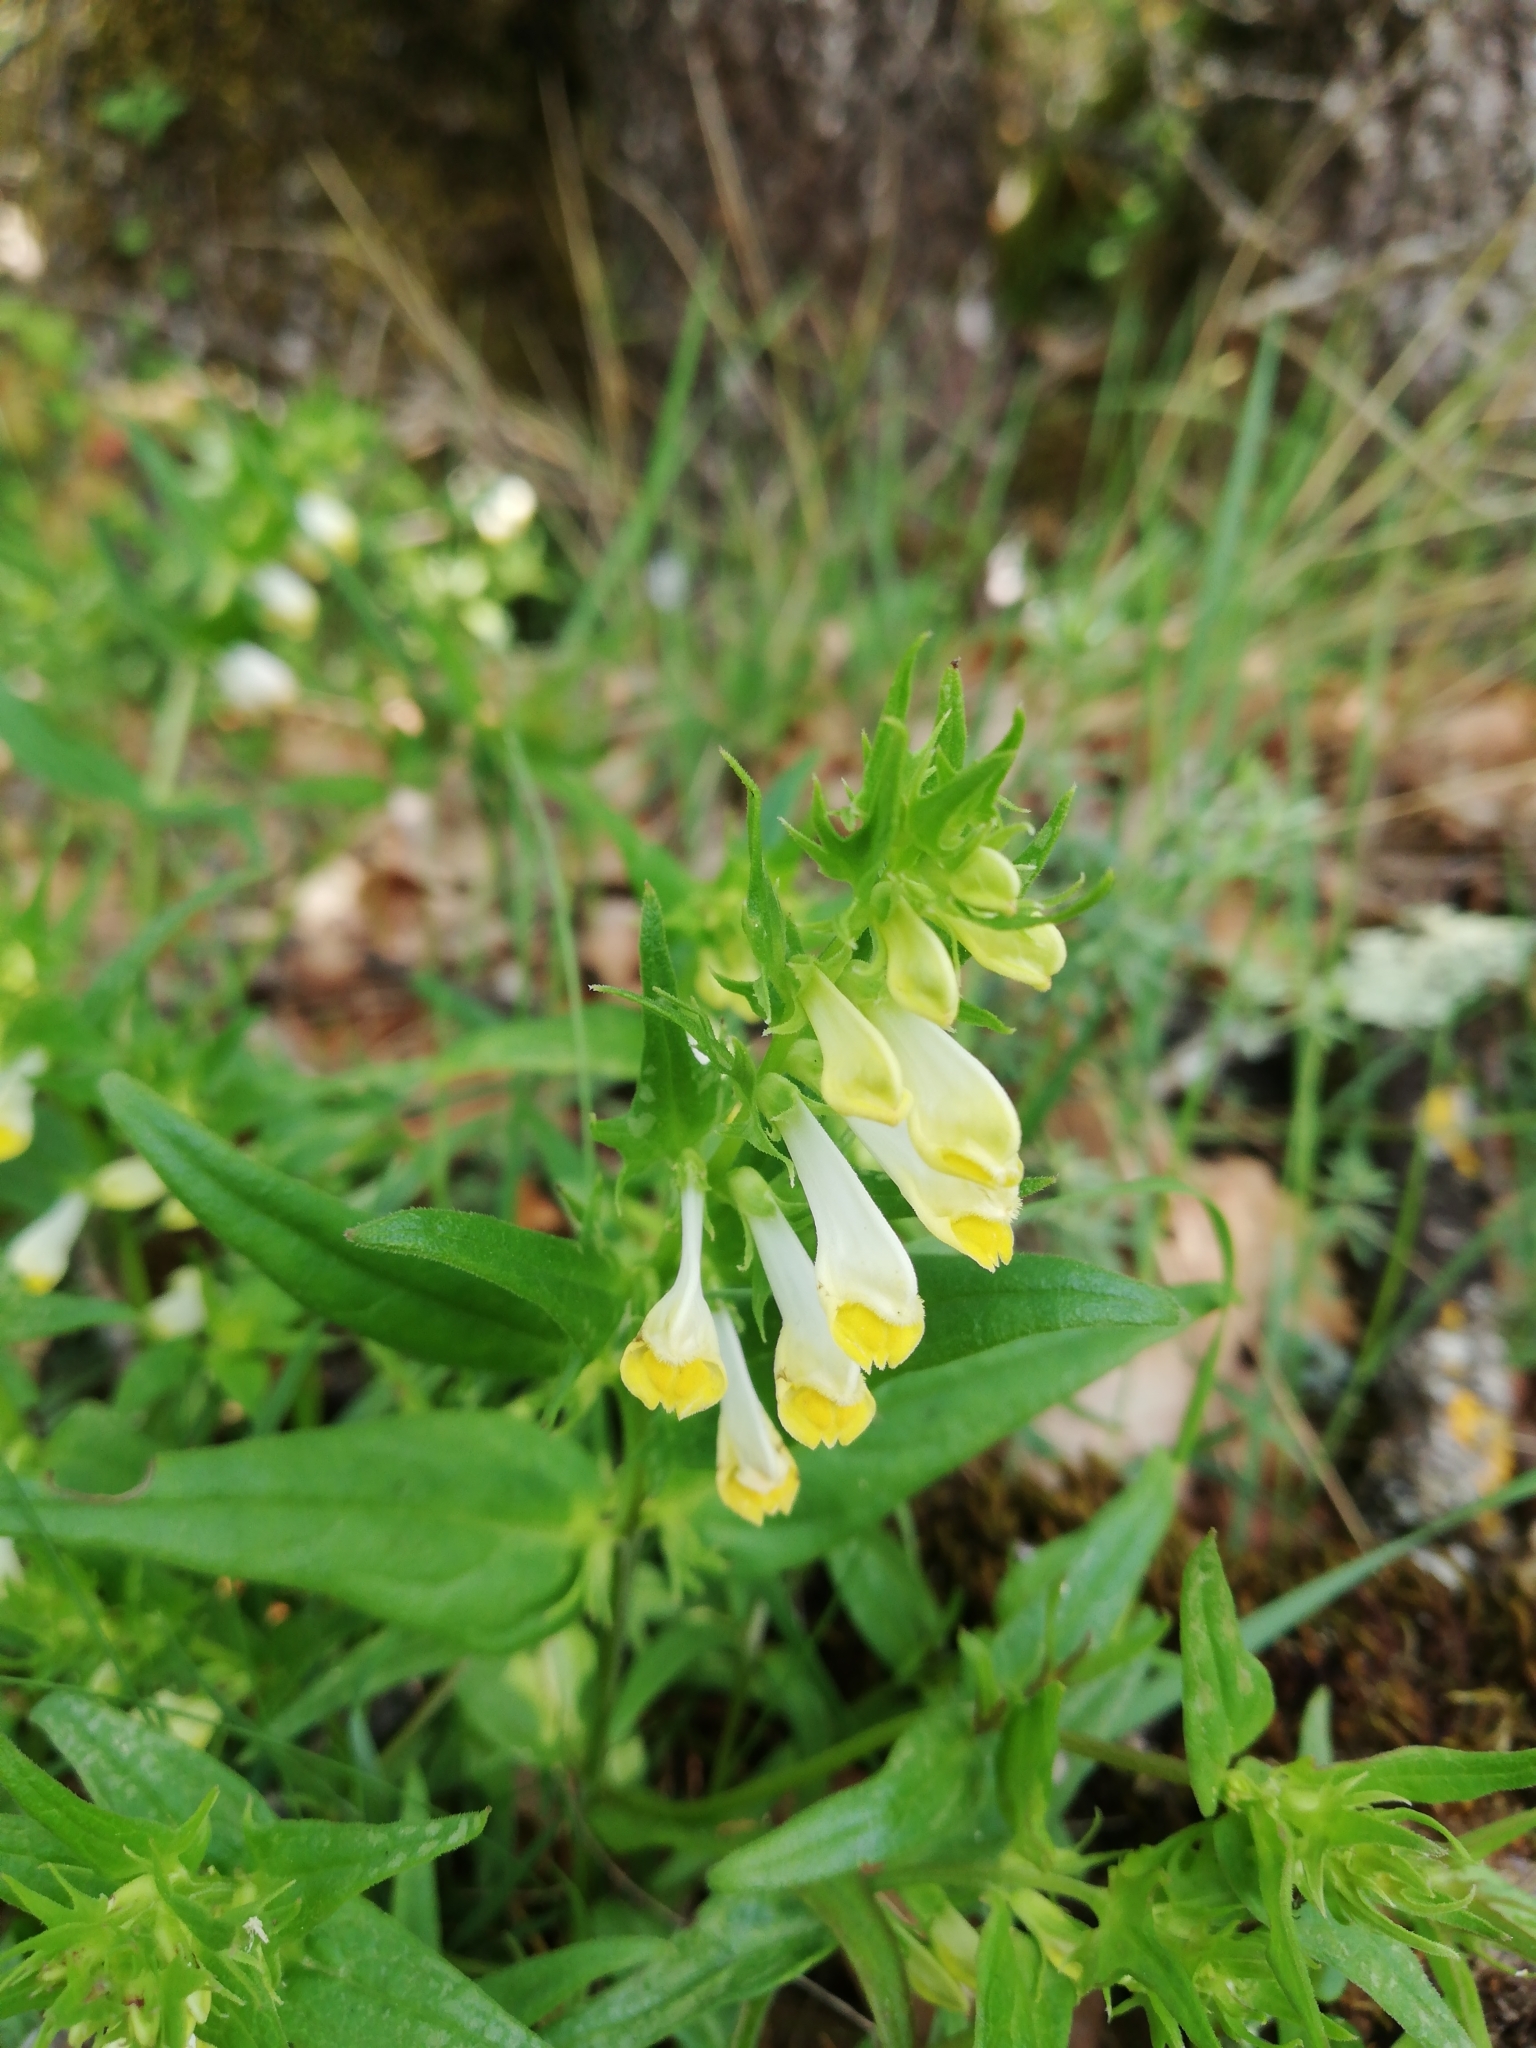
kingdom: Plantae
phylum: Tracheophyta
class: Magnoliopsida
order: Lamiales
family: Orobanchaceae
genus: Melampyrum
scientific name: Melampyrum pratense
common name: Common cow-wheat
